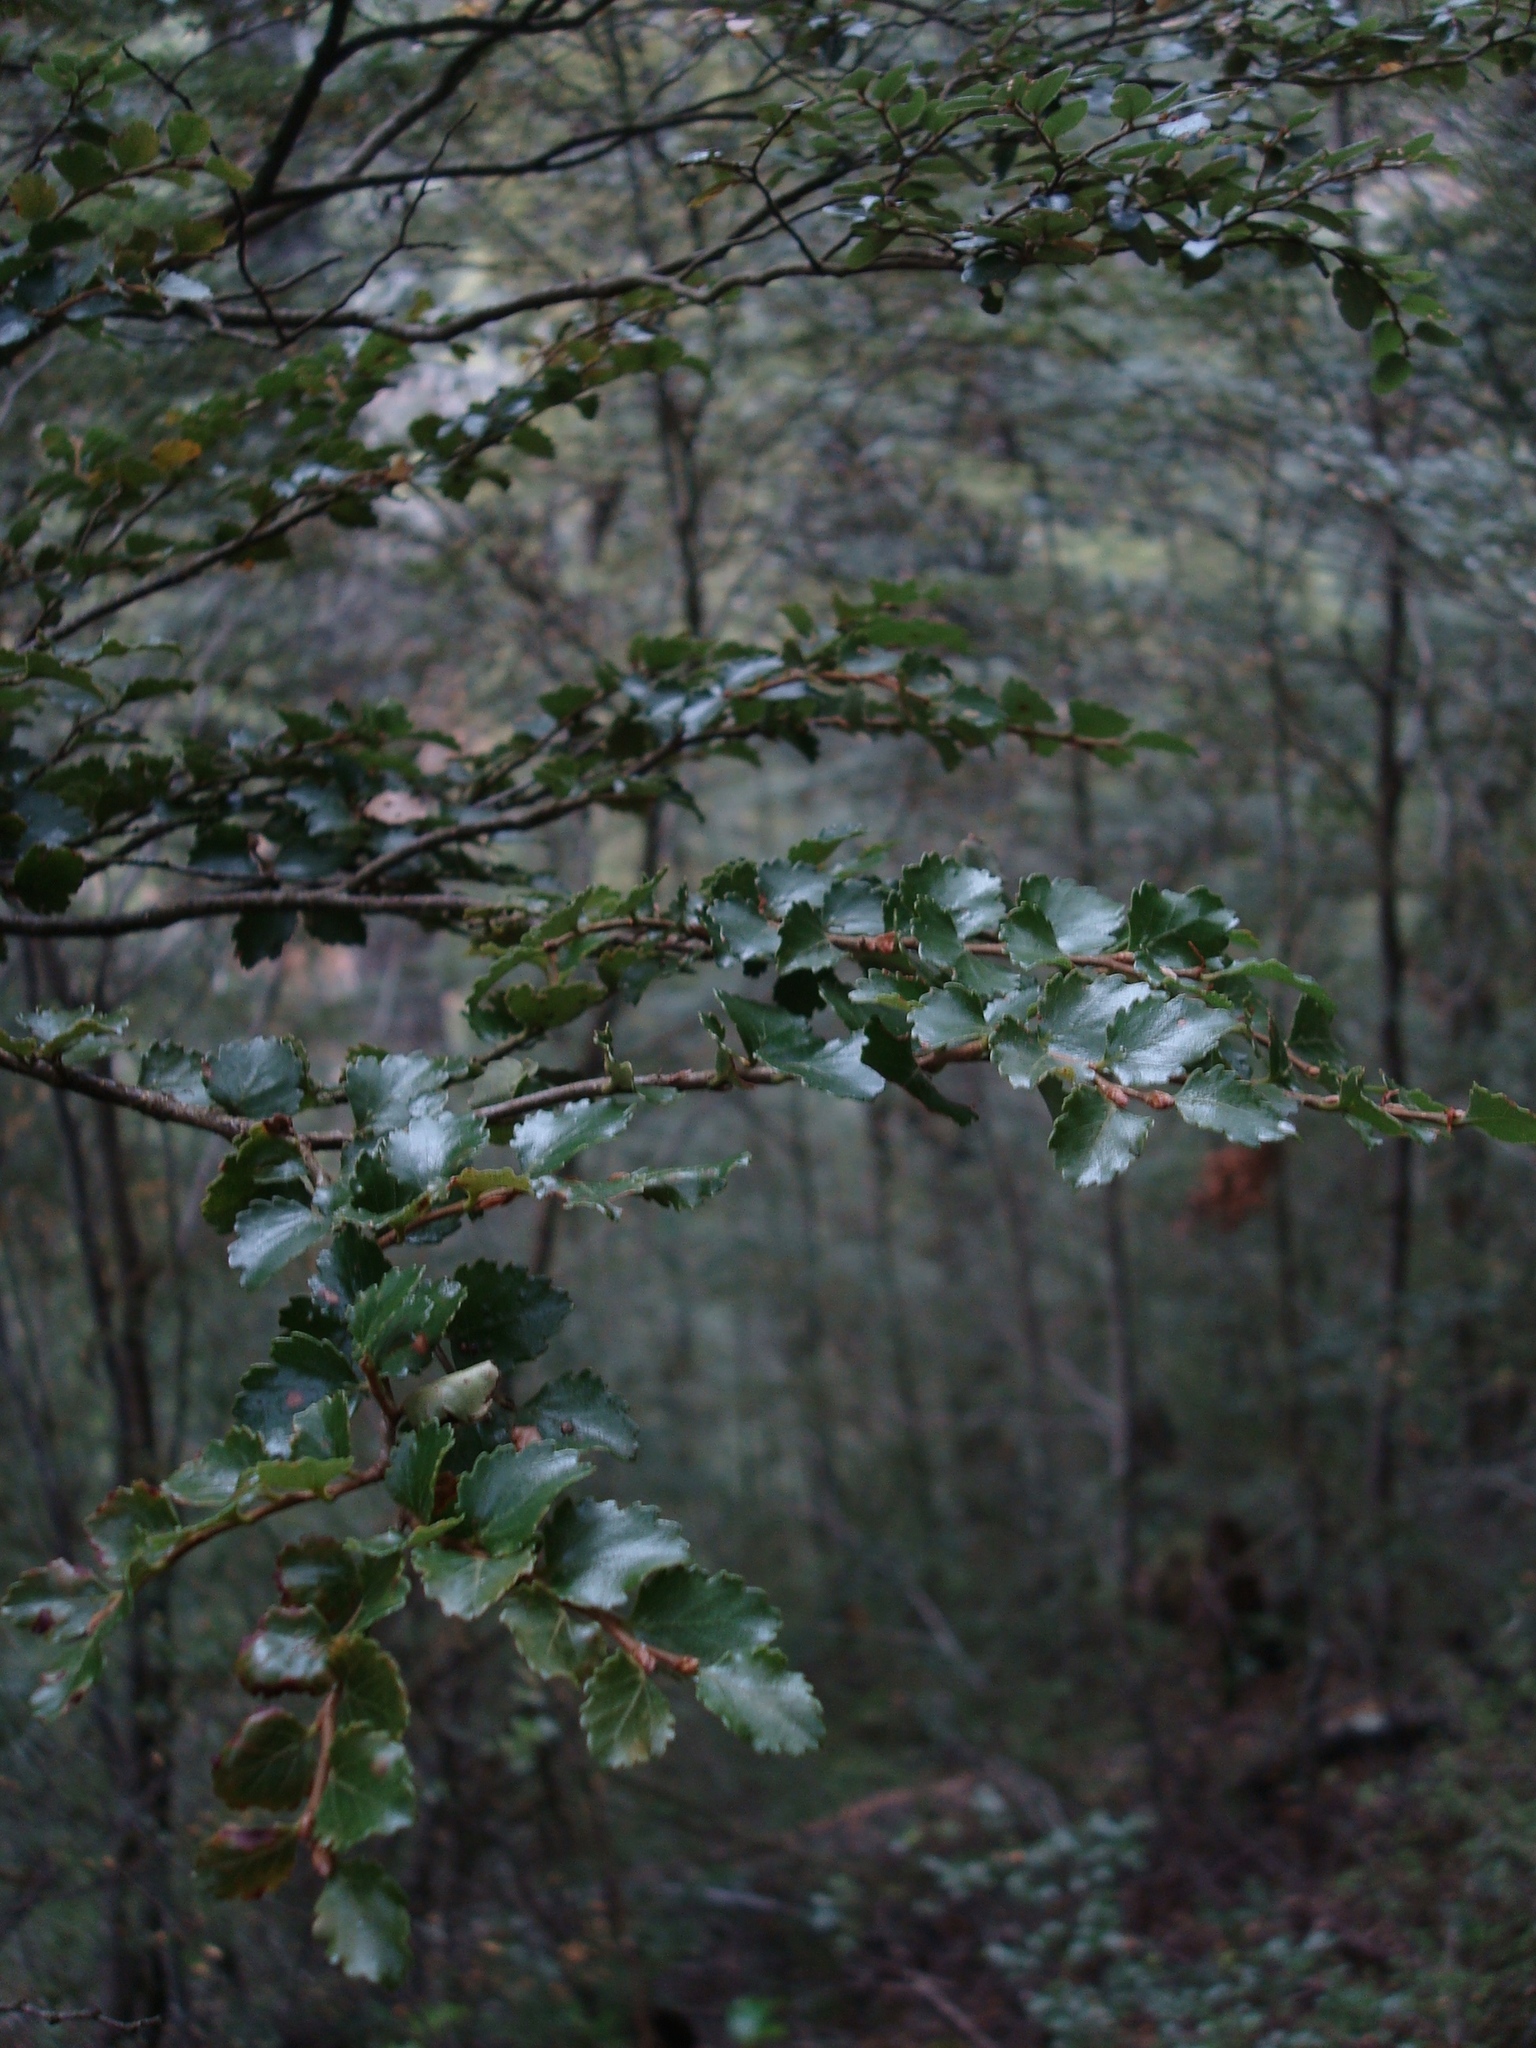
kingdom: Plantae
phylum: Tracheophyta
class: Magnoliopsida
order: Fagales
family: Nothofagaceae
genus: Nothofagus
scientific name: Nothofagus menziesii
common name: Silver beech
